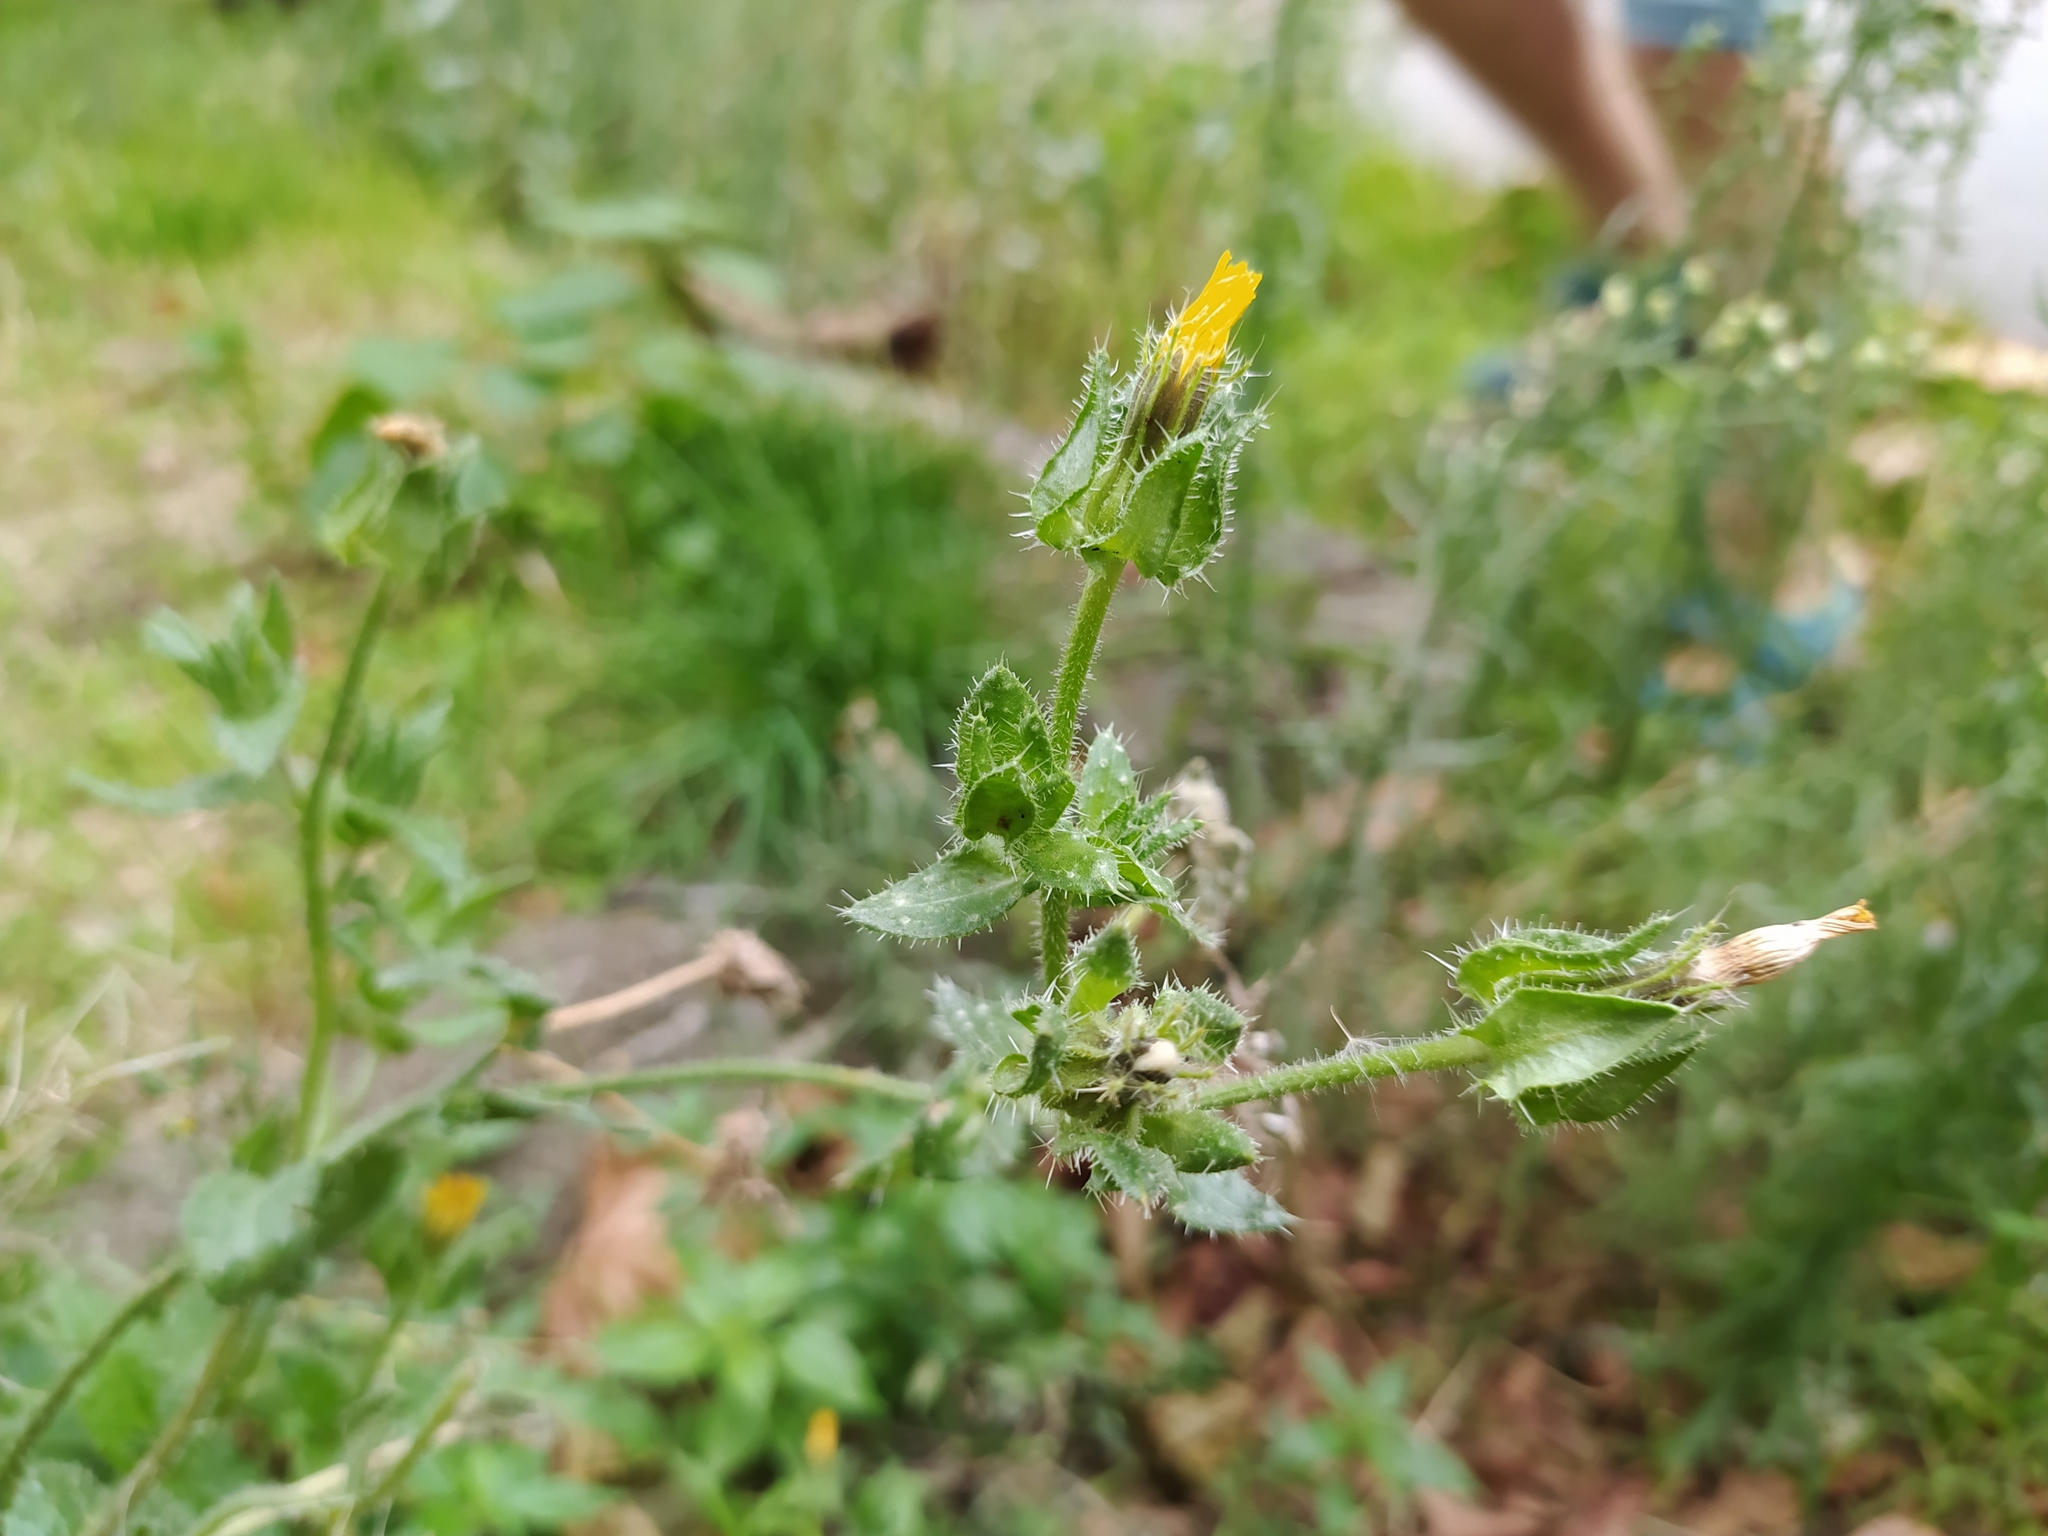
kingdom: Plantae
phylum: Tracheophyta
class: Magnoliopsida
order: Asterales
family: Asteraceae
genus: Helminthotheca
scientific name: Helminthotheca echioides
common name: Ox-tongue
